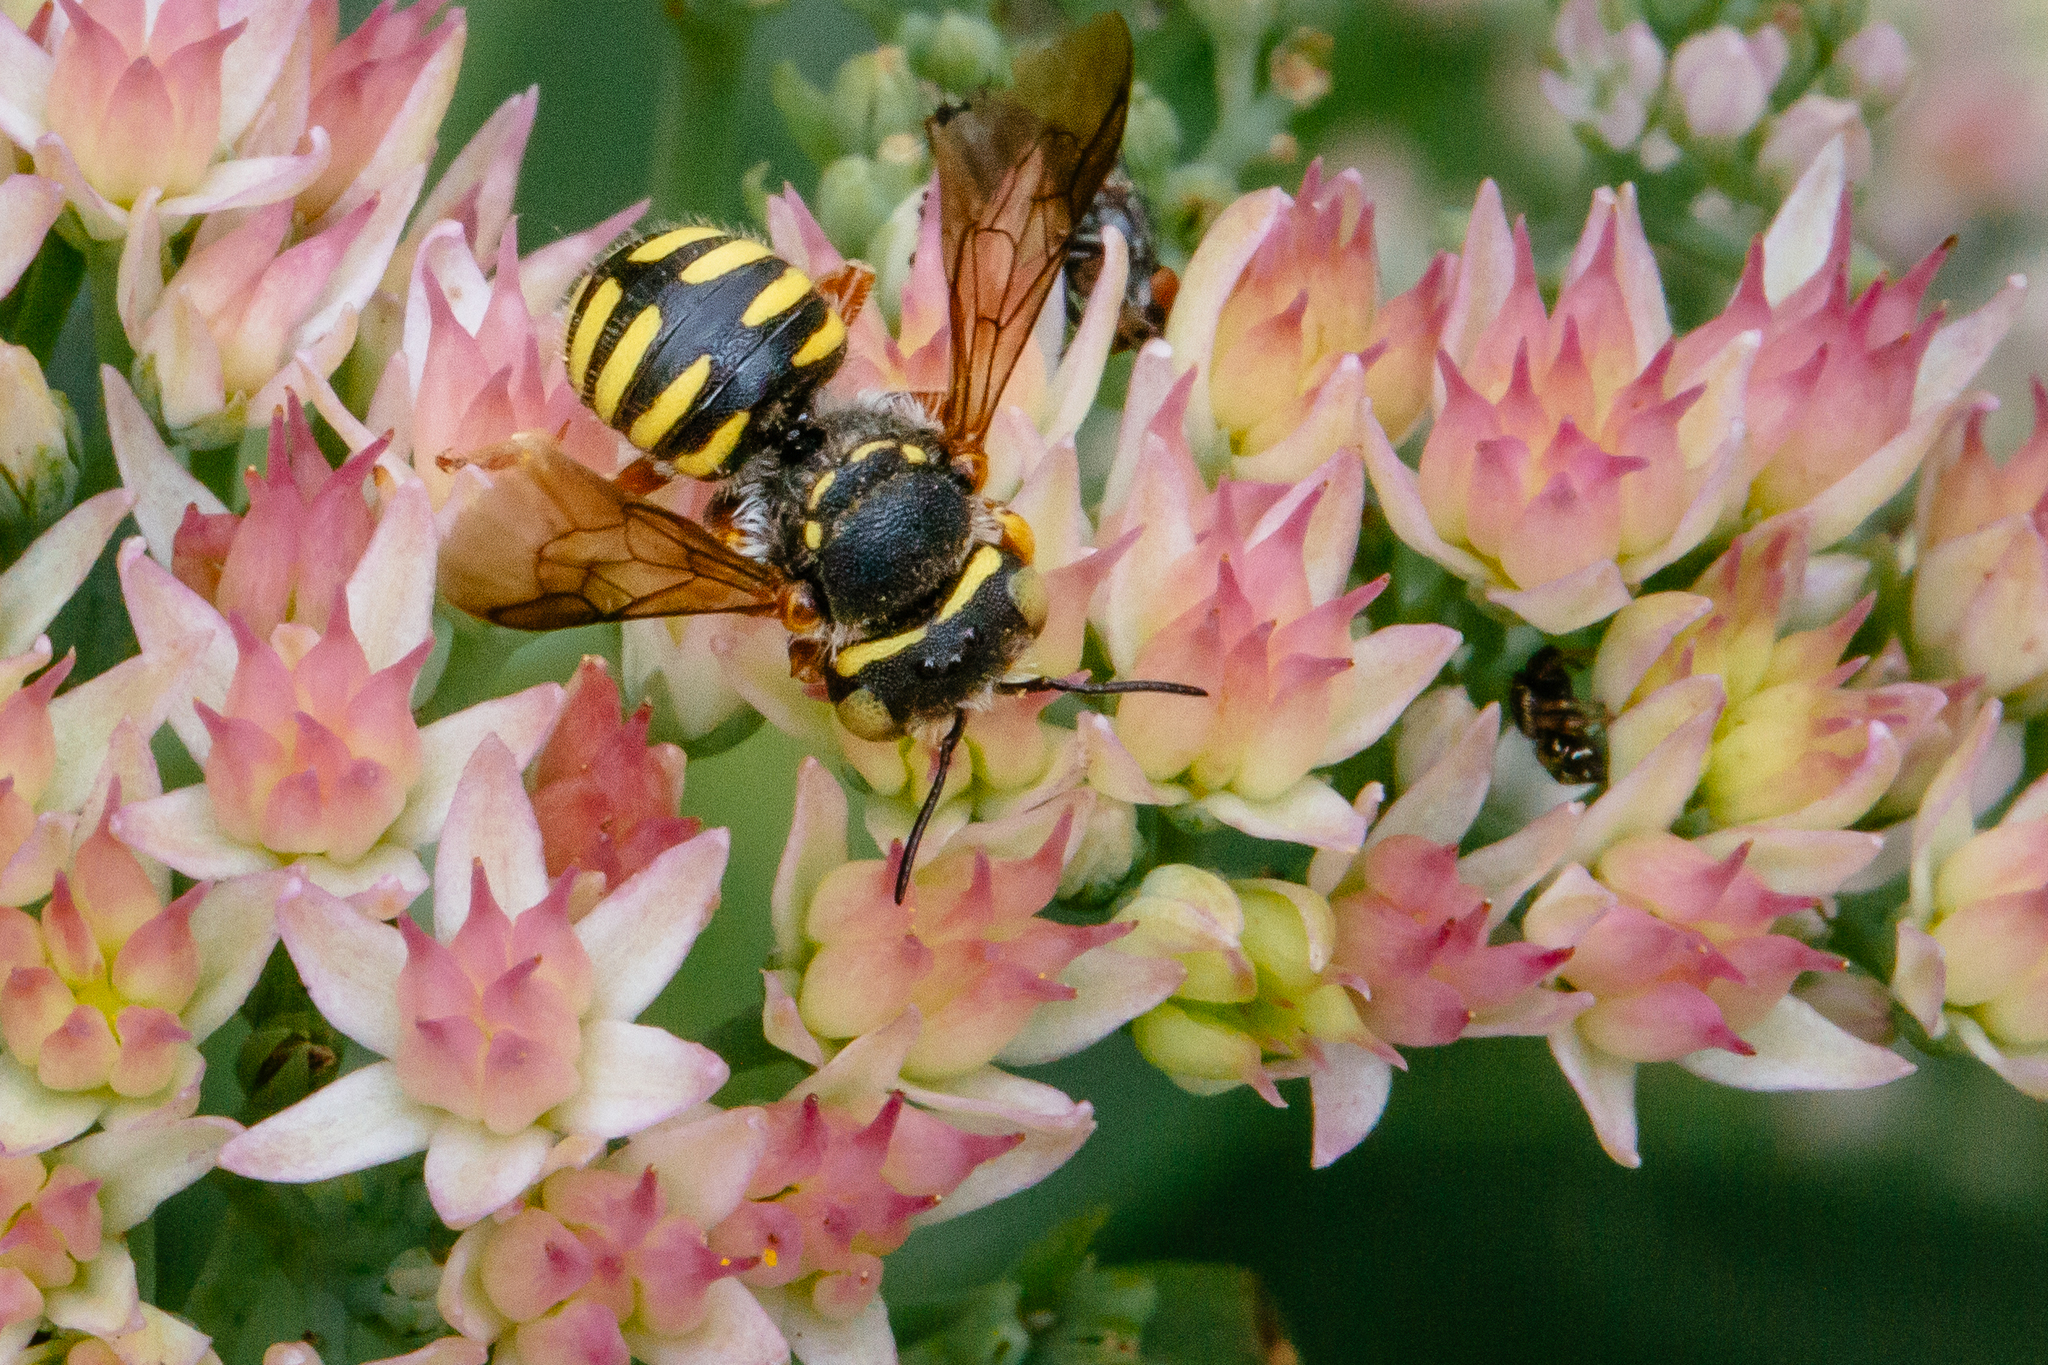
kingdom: Animalia
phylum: Arthropoda
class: Insecta
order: Hymenoptera
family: Megachilidae
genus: Anthidium
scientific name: Anthidium oblongatum
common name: Oblong wool carder bee
